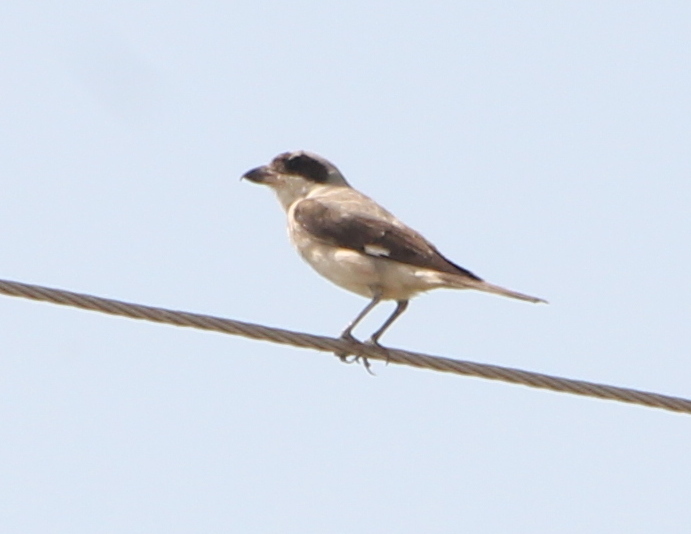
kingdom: Animalia
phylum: Chordata
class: Aves
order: Passeriformes
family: Laniidae
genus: Lanius
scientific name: Lanius minor
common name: Lesser grey shrike
